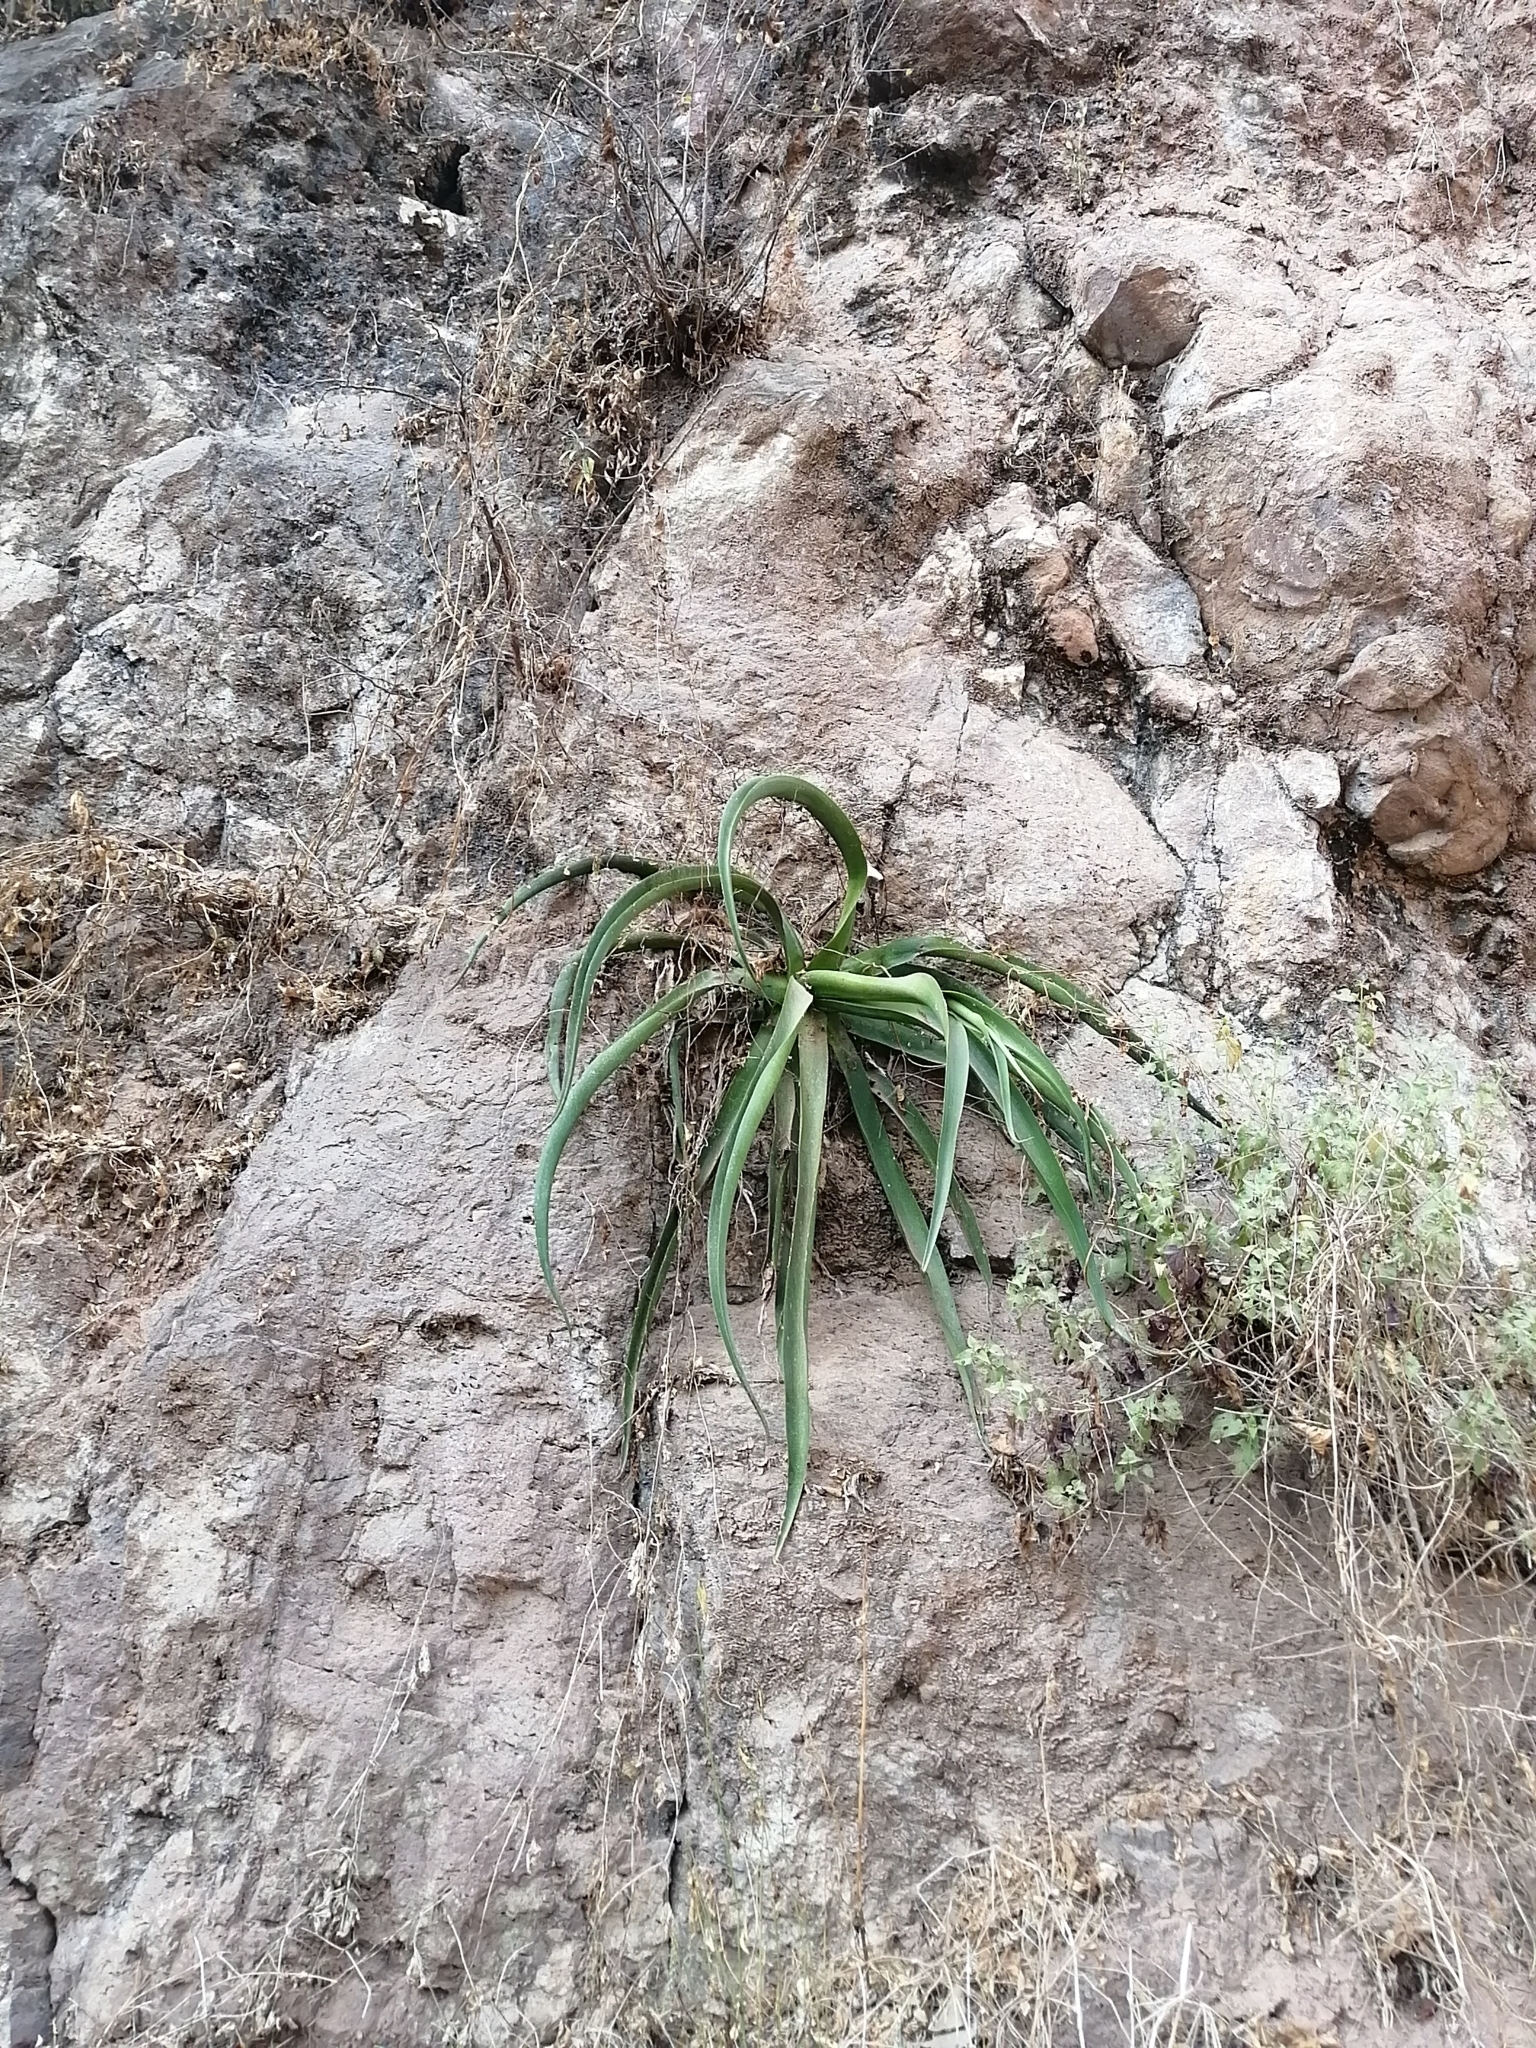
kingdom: Plantae
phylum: Tracheophyta
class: Liliopsida
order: Asparagales
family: Asparagaceae
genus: Agave
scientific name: Agave vilmoriniana
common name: Octopus plant
